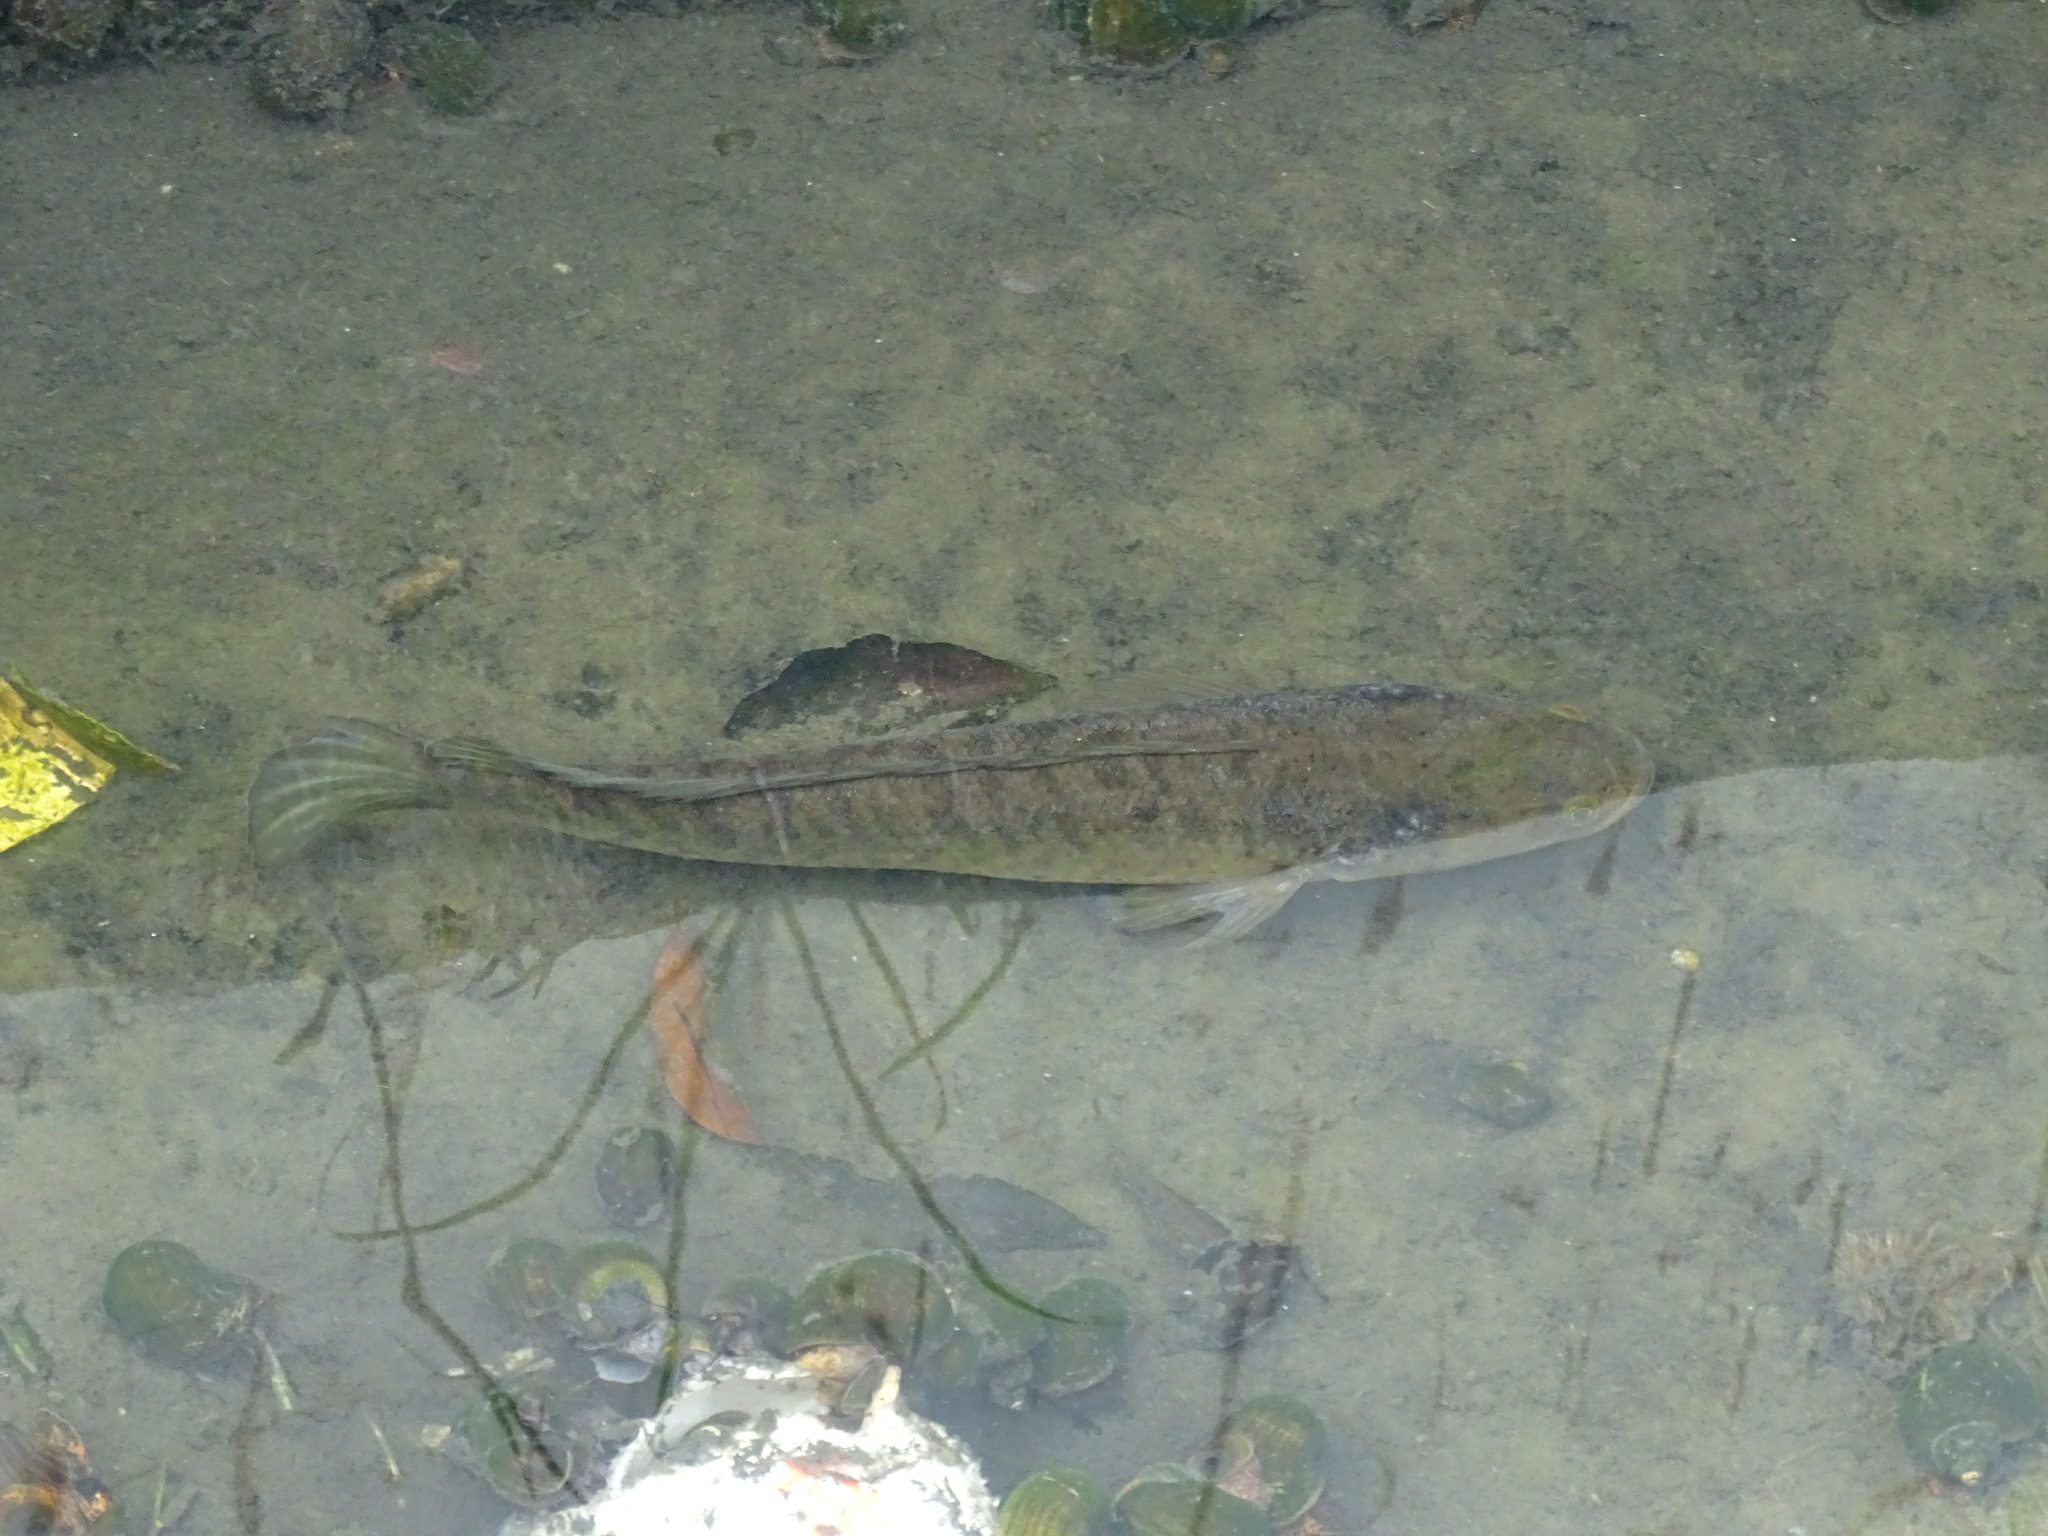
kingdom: Animalia
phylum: Chordata
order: Perciformes
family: Channidae
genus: Channa
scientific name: Channa striata
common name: Striped snakehead
